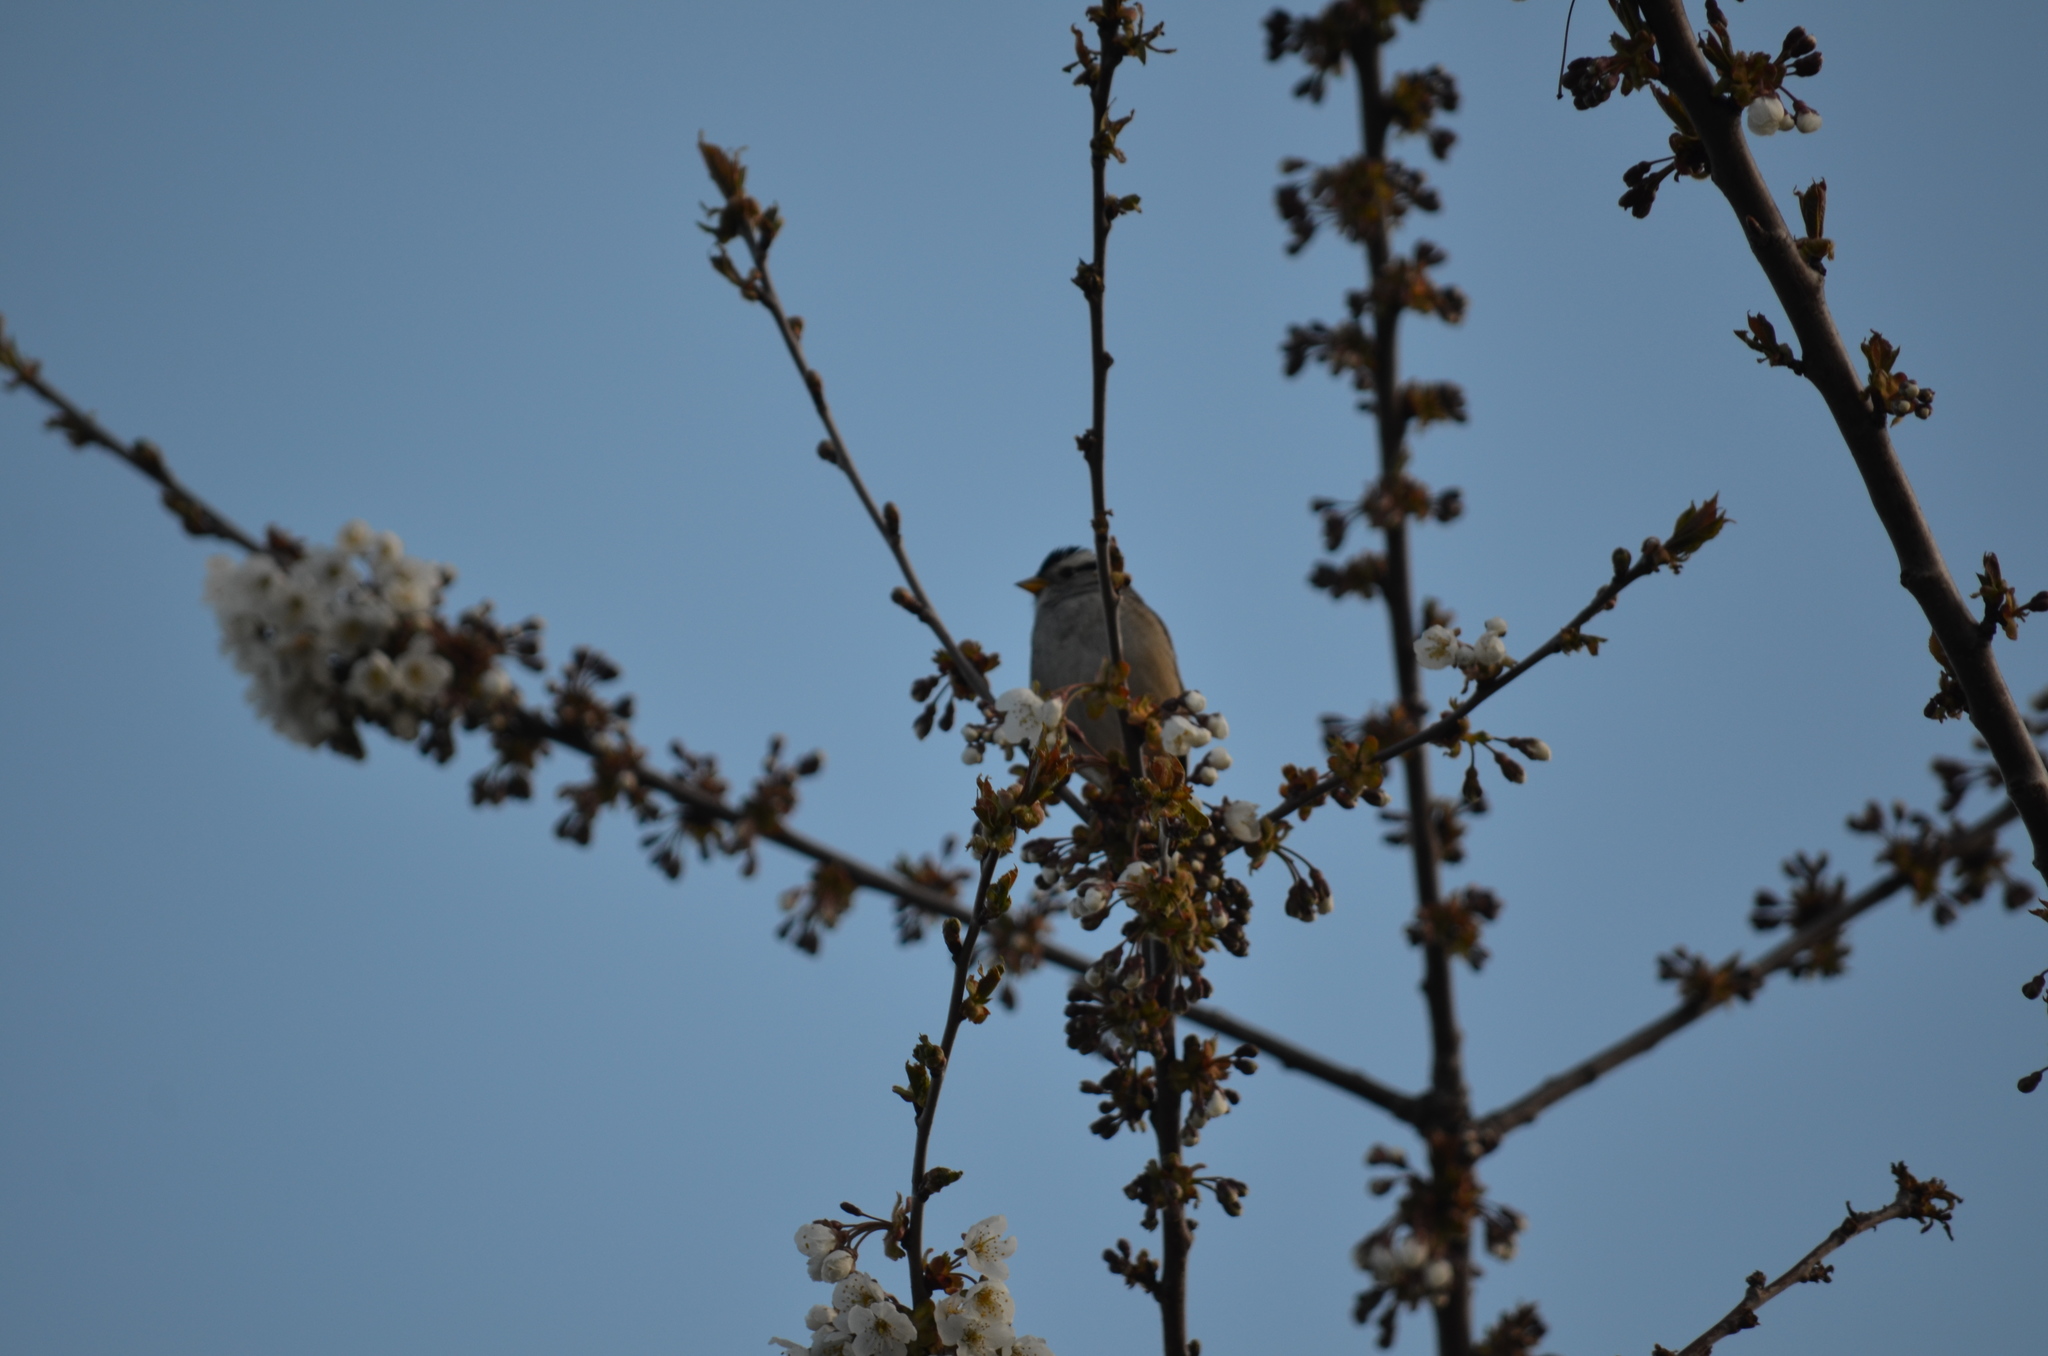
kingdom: Animalia
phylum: Chordata
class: Aves
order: Passeriformes
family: Passerellidae
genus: Zonotrichia
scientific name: Zonotrichia leucophrys
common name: White-crowned sparrow
